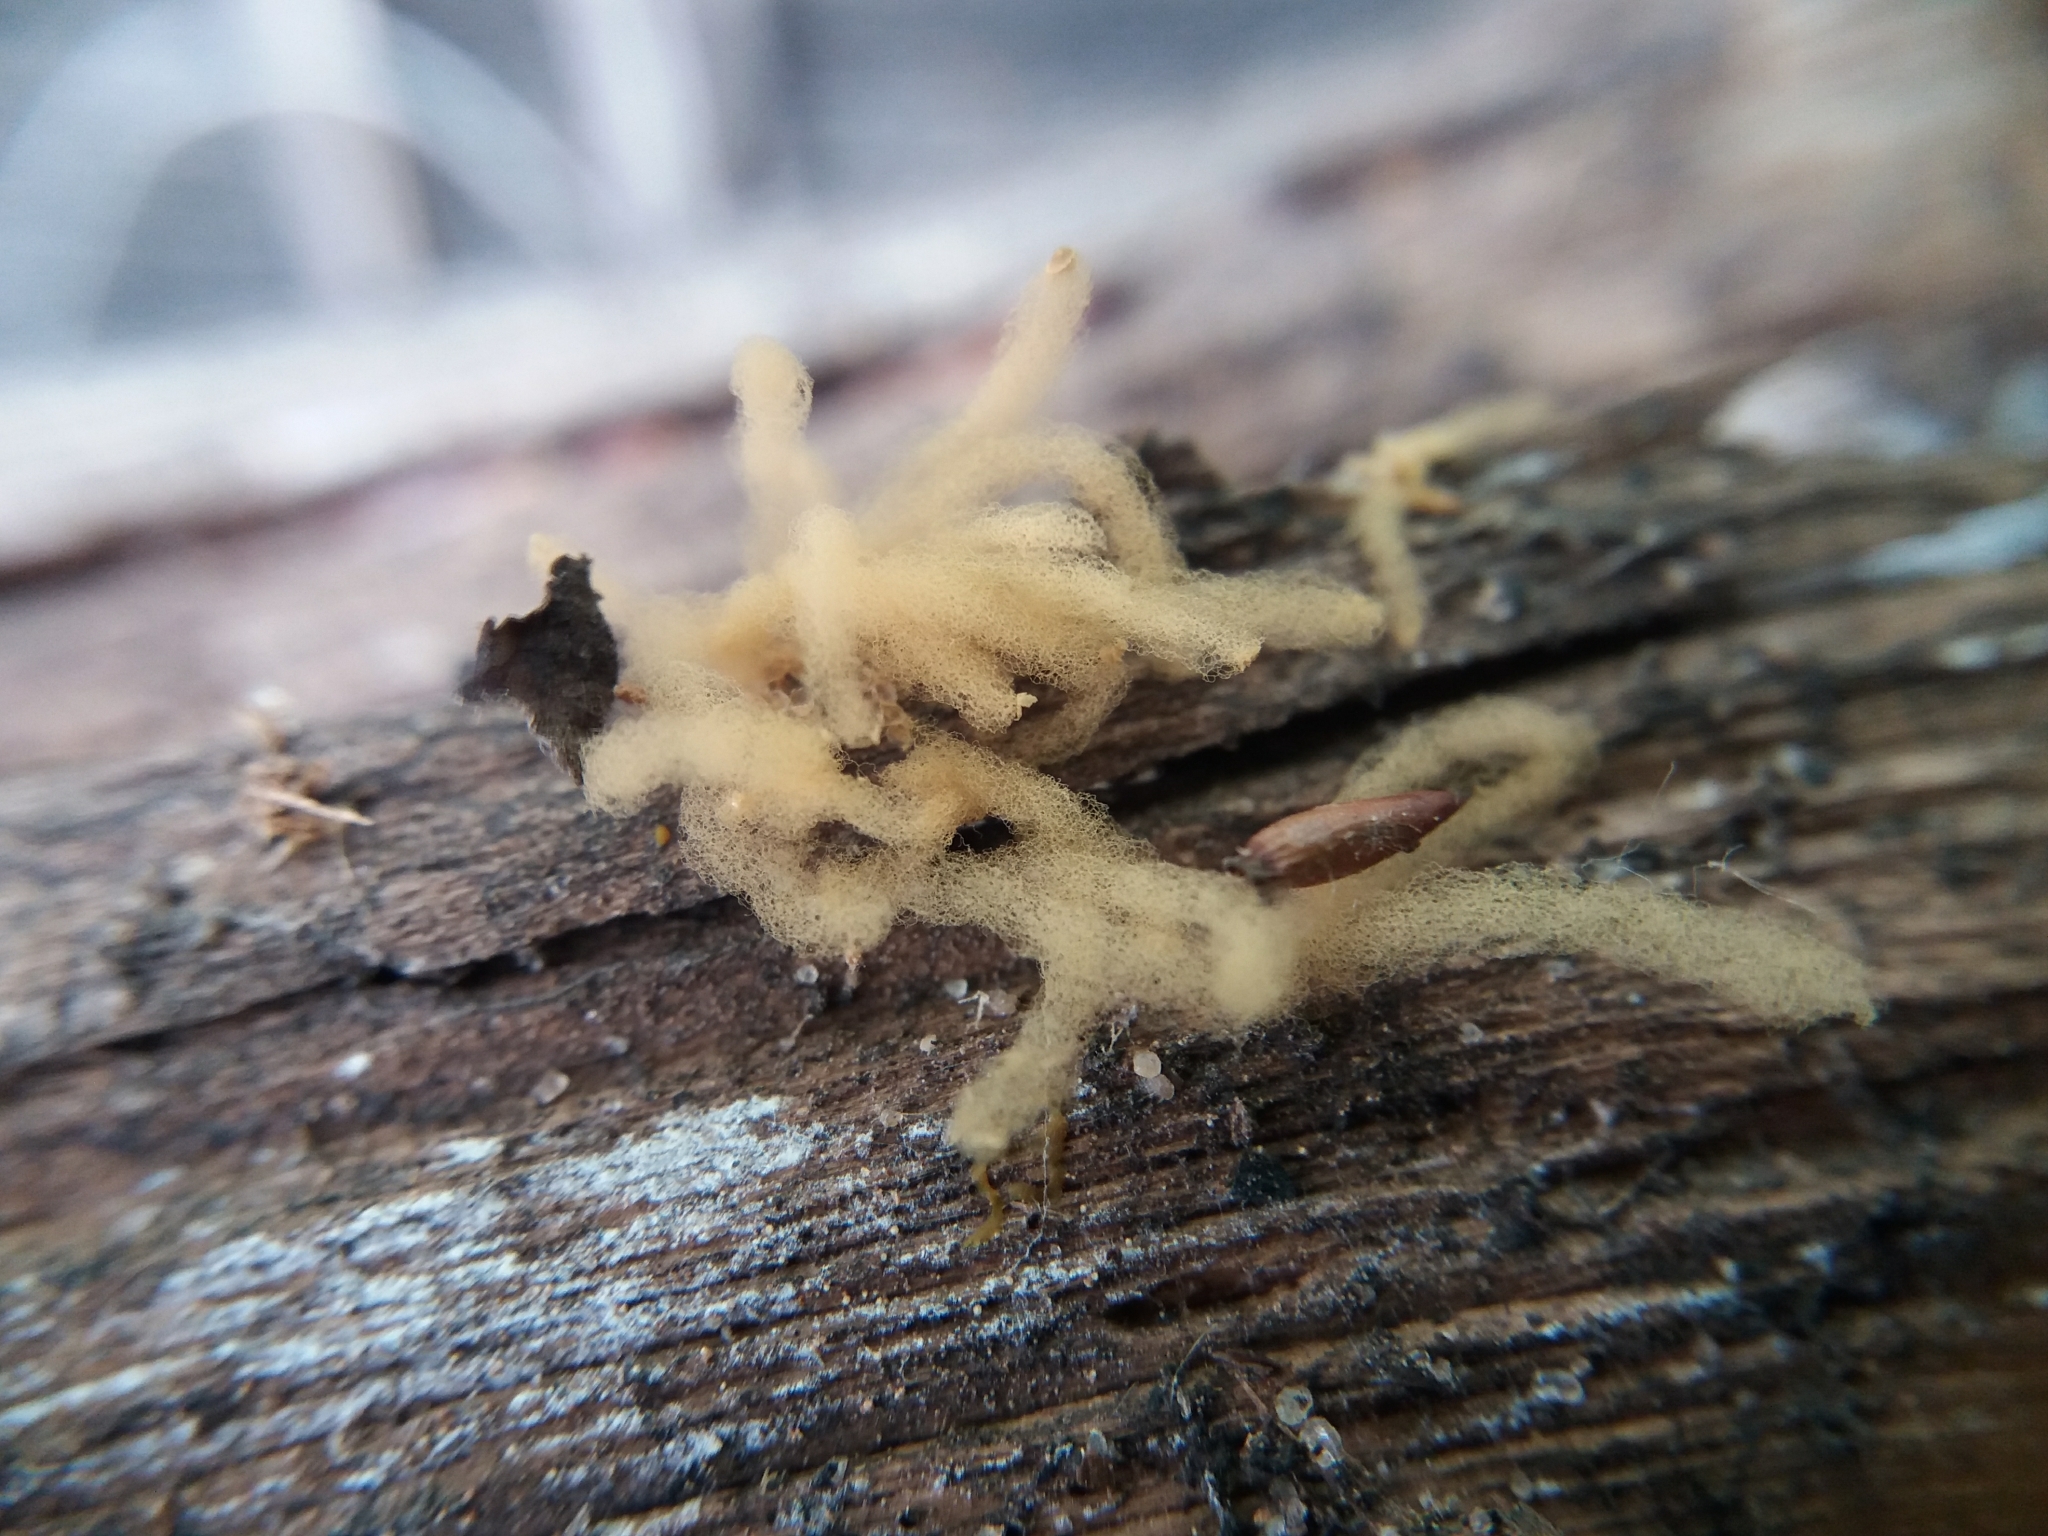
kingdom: Protozoa
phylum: Mycetozoa
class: Myxomycetes
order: Trichiales
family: Arcyriaceae
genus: Arcyria
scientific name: Arcyria obvelata
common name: Yellow carnival candy slime
